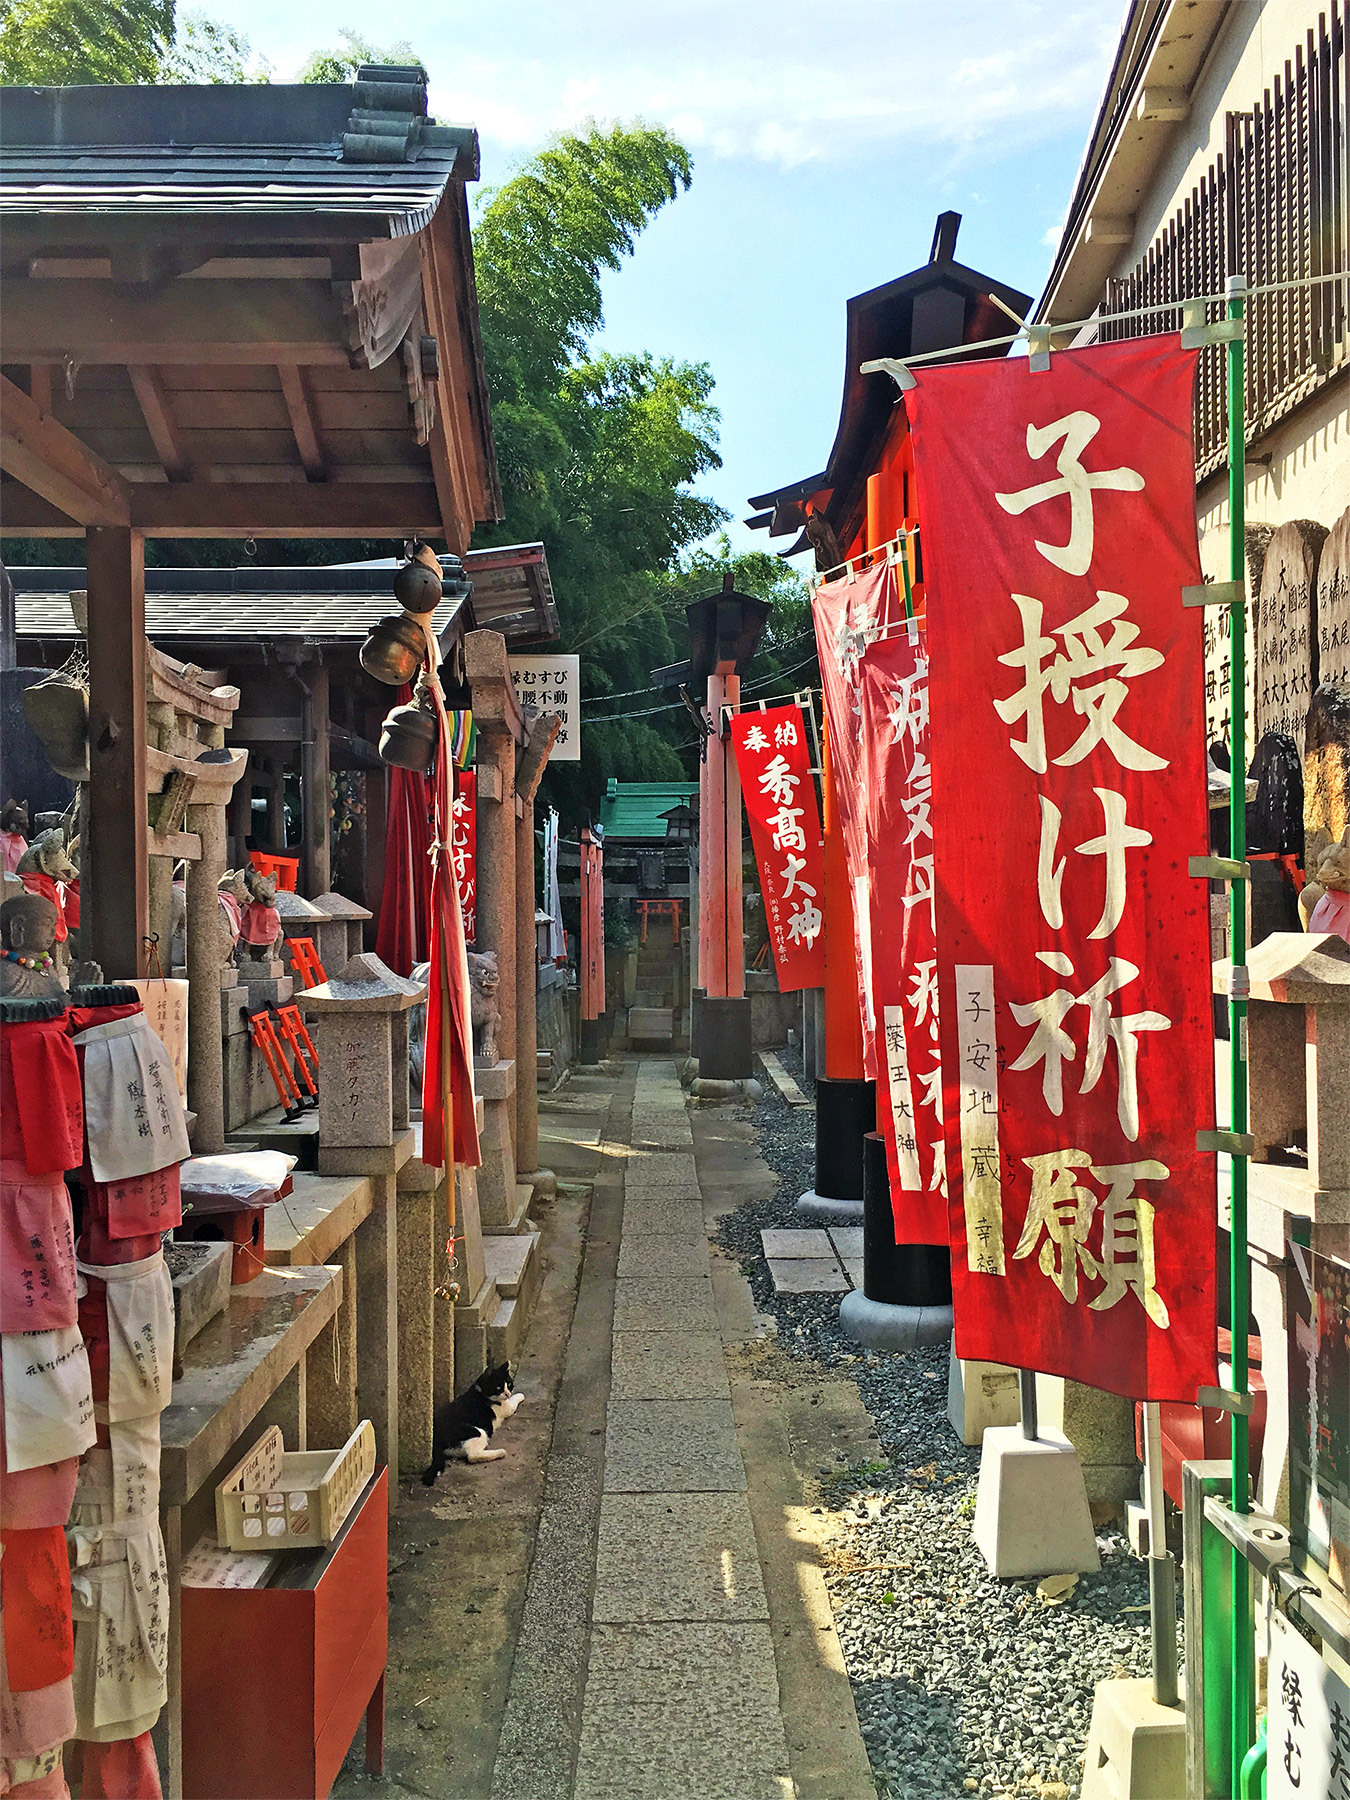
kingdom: Animalia
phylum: Chordata
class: Mammalia
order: Carnivora
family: Felidae
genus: Felis
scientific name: Felis catus
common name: Domestic cat
